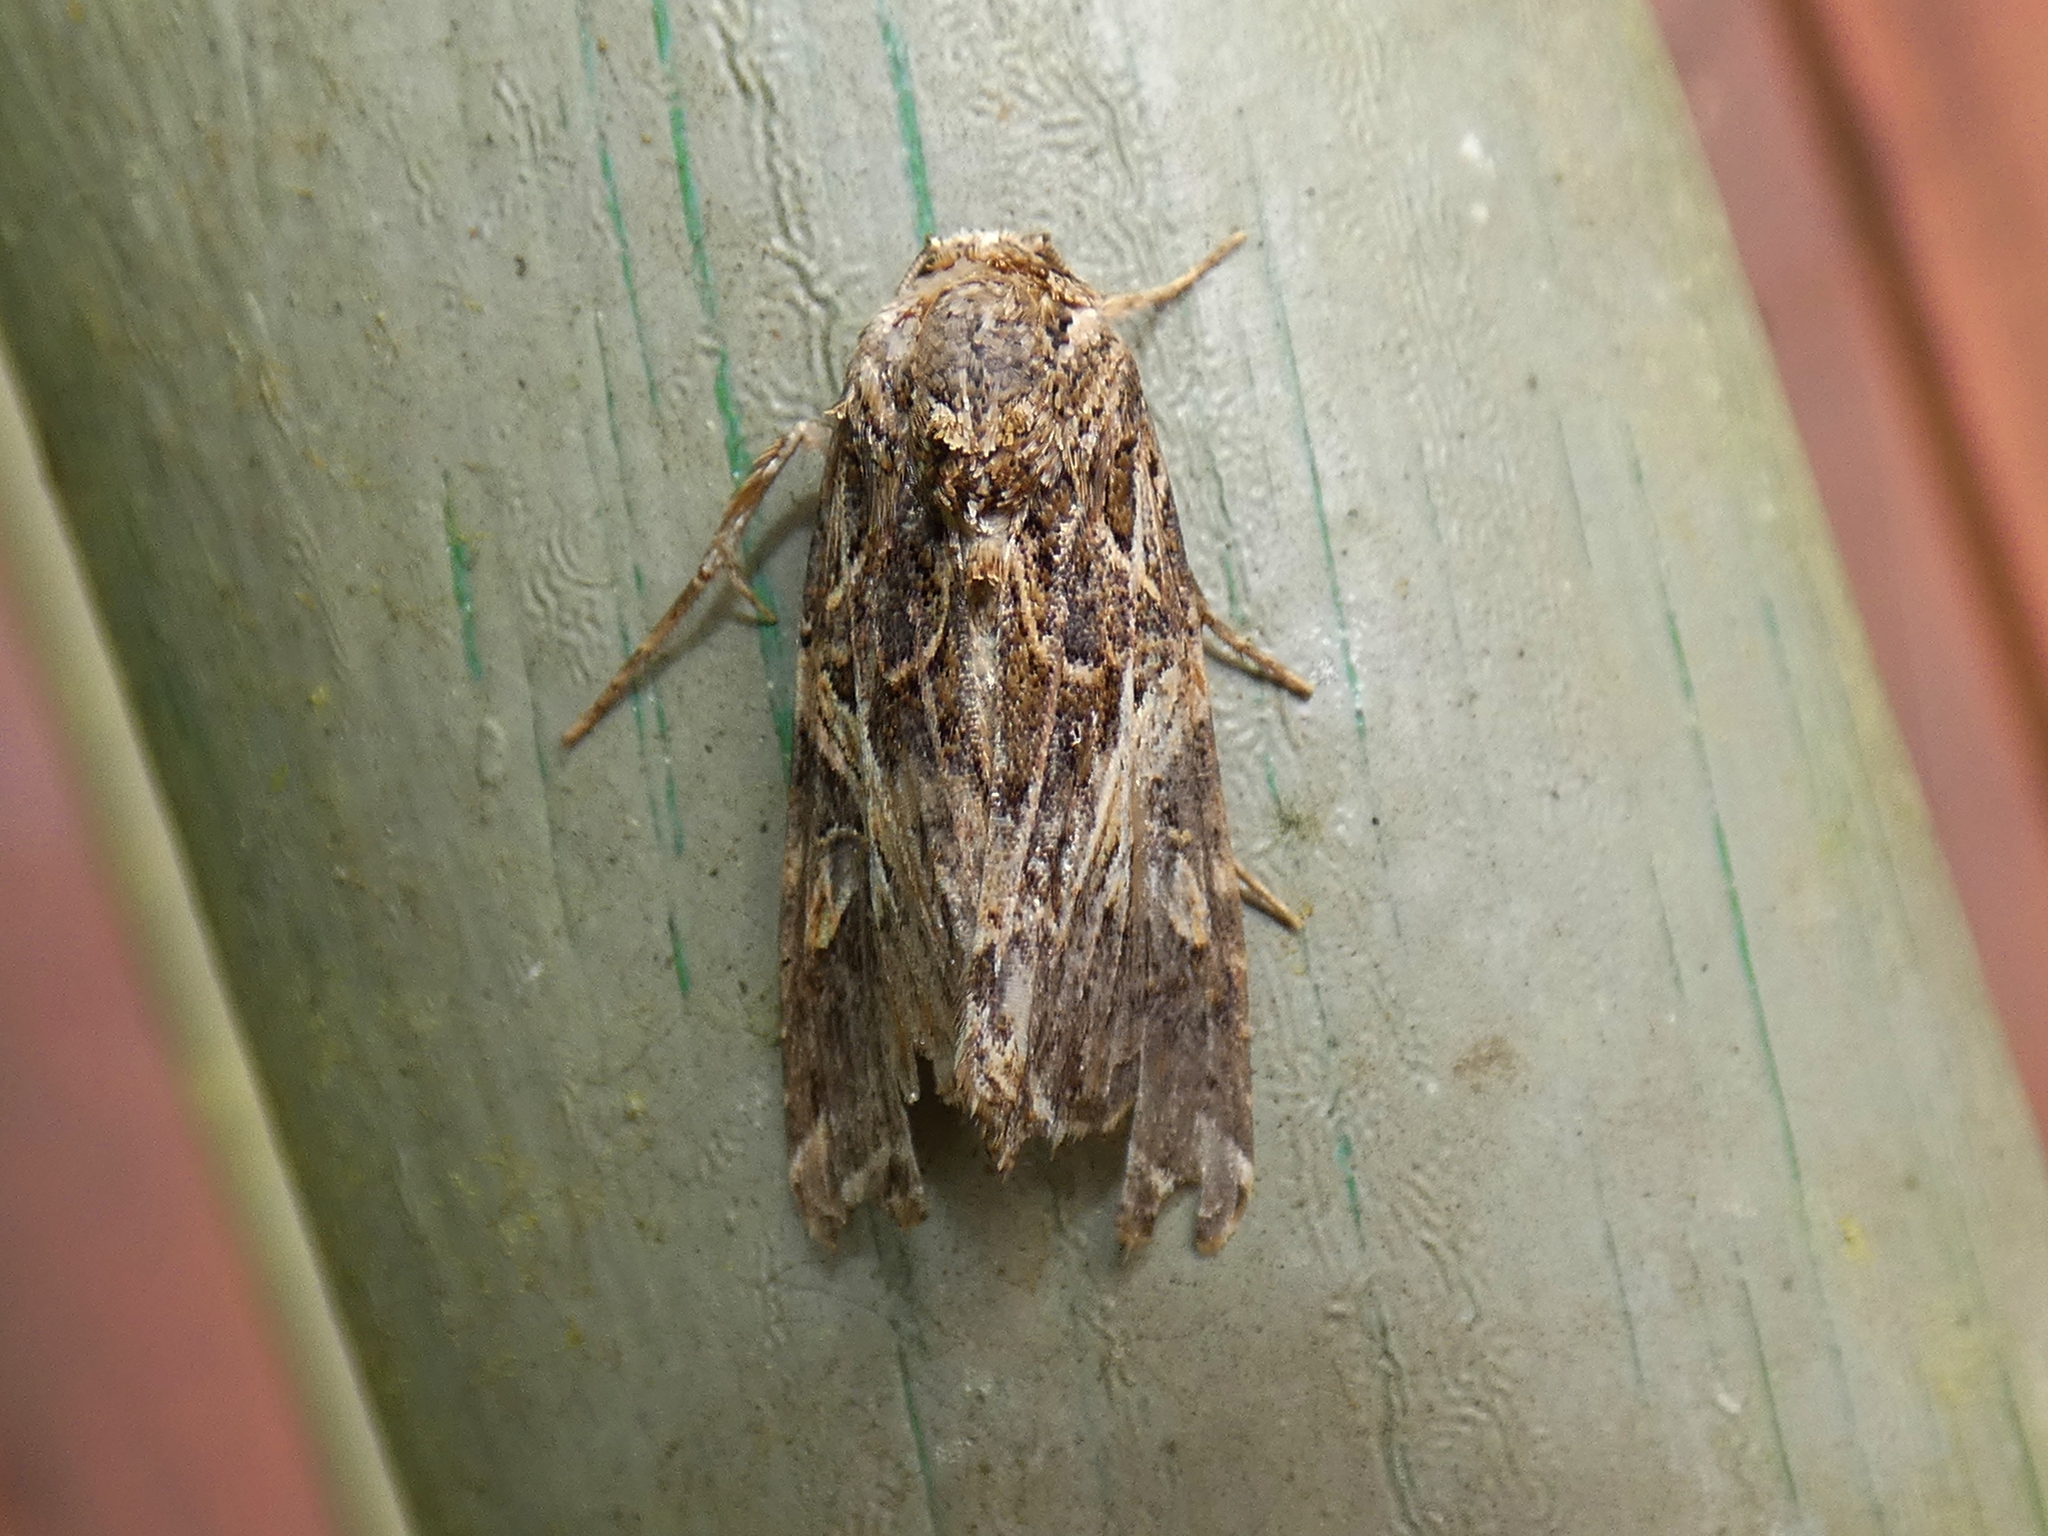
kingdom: Animalia
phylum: Arthropoda
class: Insecta
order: Lepidoptera
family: Noctuidae
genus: Spodoptera
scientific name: Spodoptera litura
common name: Asian cotton leafworm
